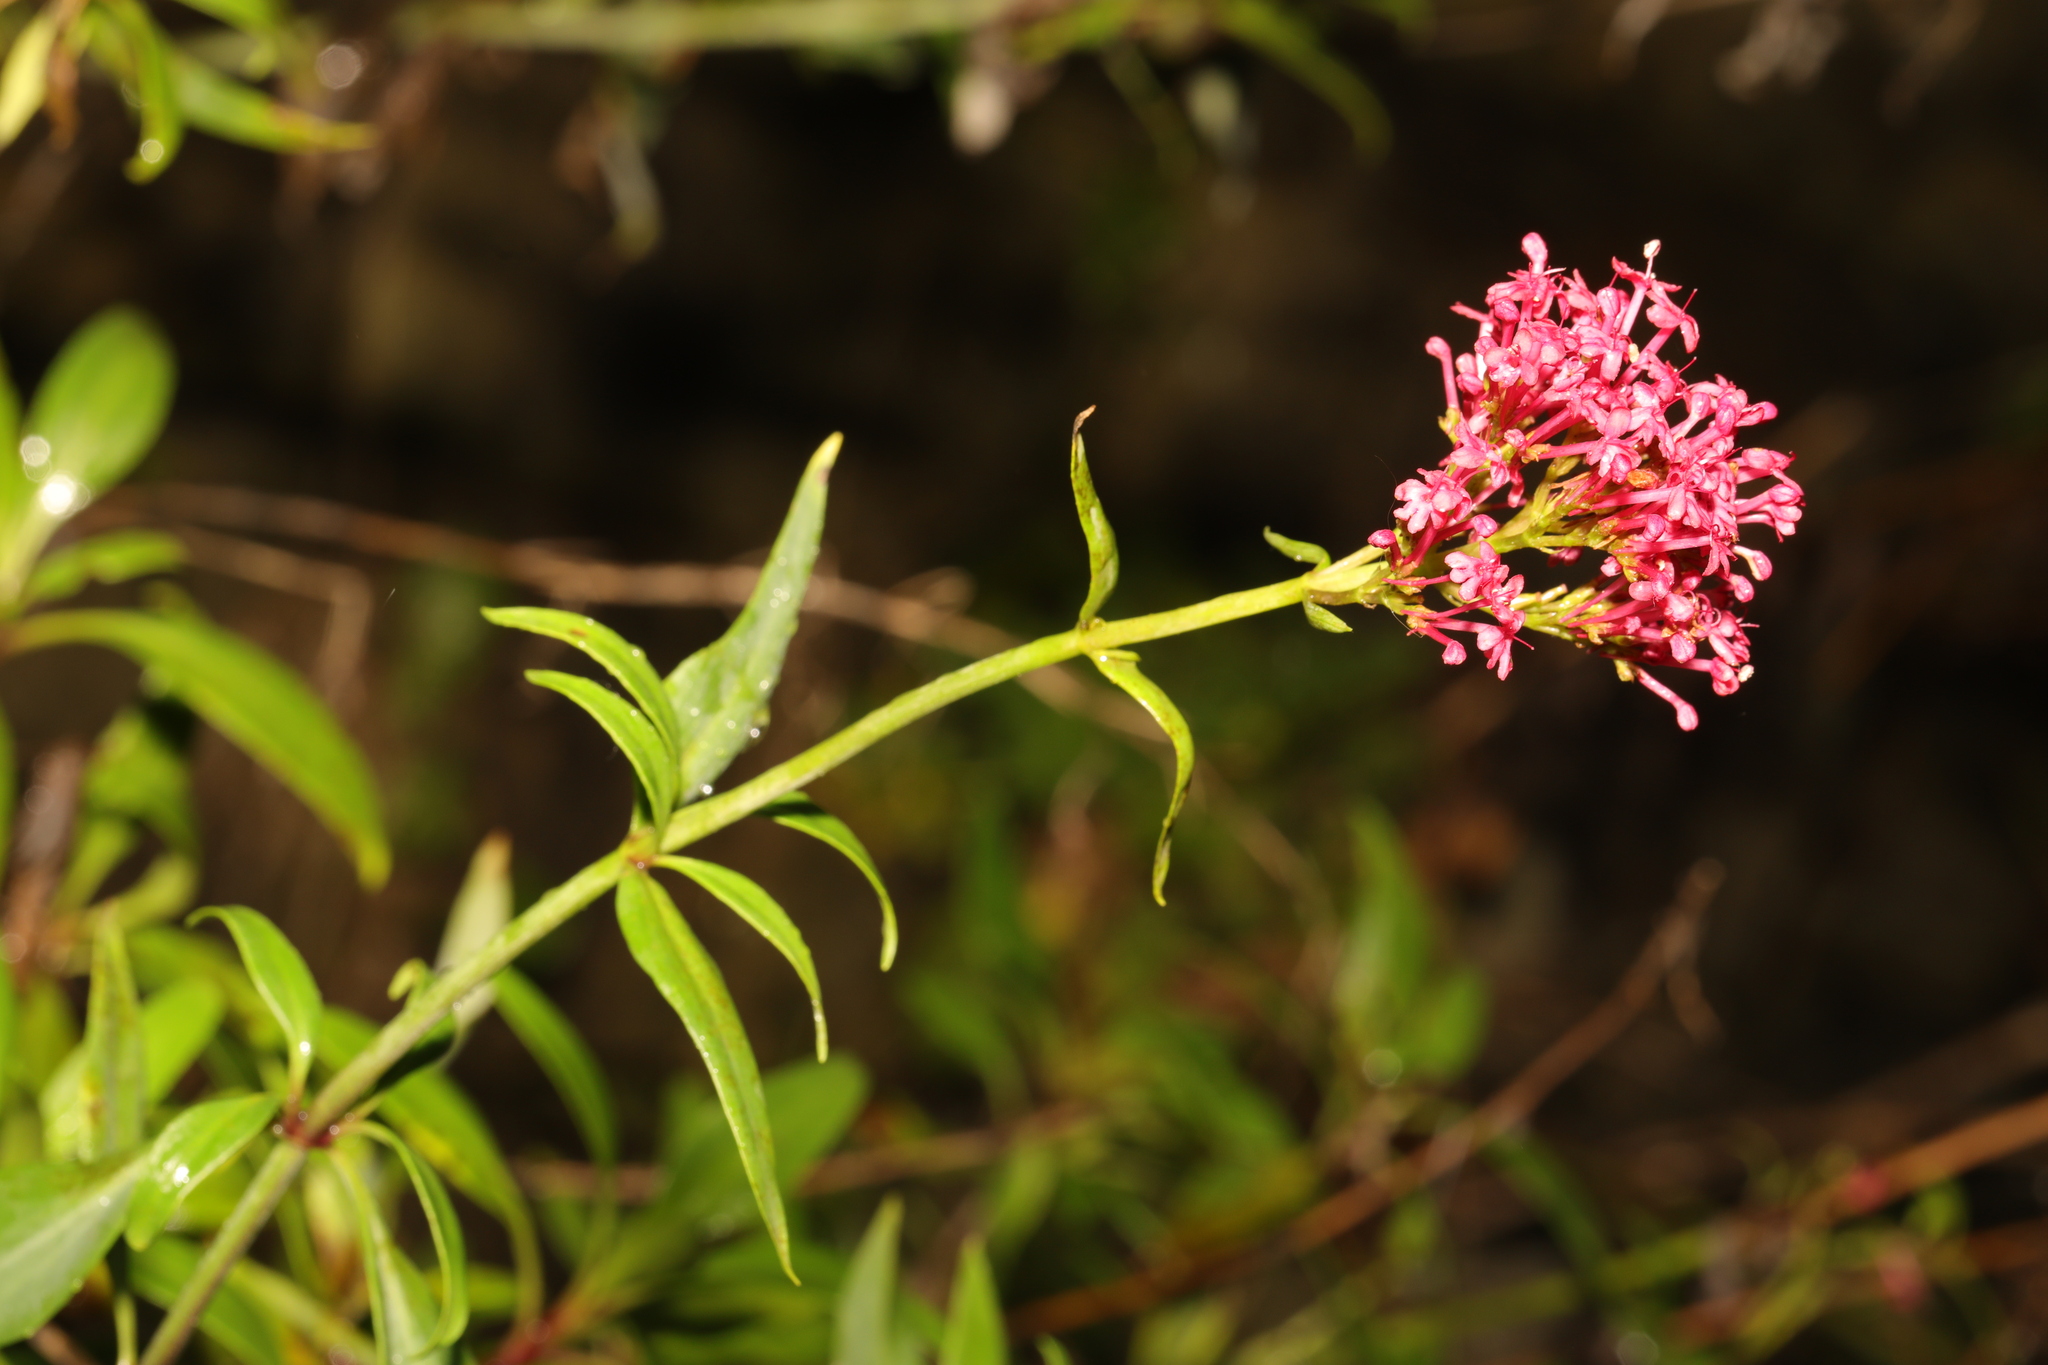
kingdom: Plantae
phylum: Tracheophyta
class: Magnoliopsida
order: Dipsacales
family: Caprifoliaceae
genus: Centranthus
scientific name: Centranthus ruber
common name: Red valerian
